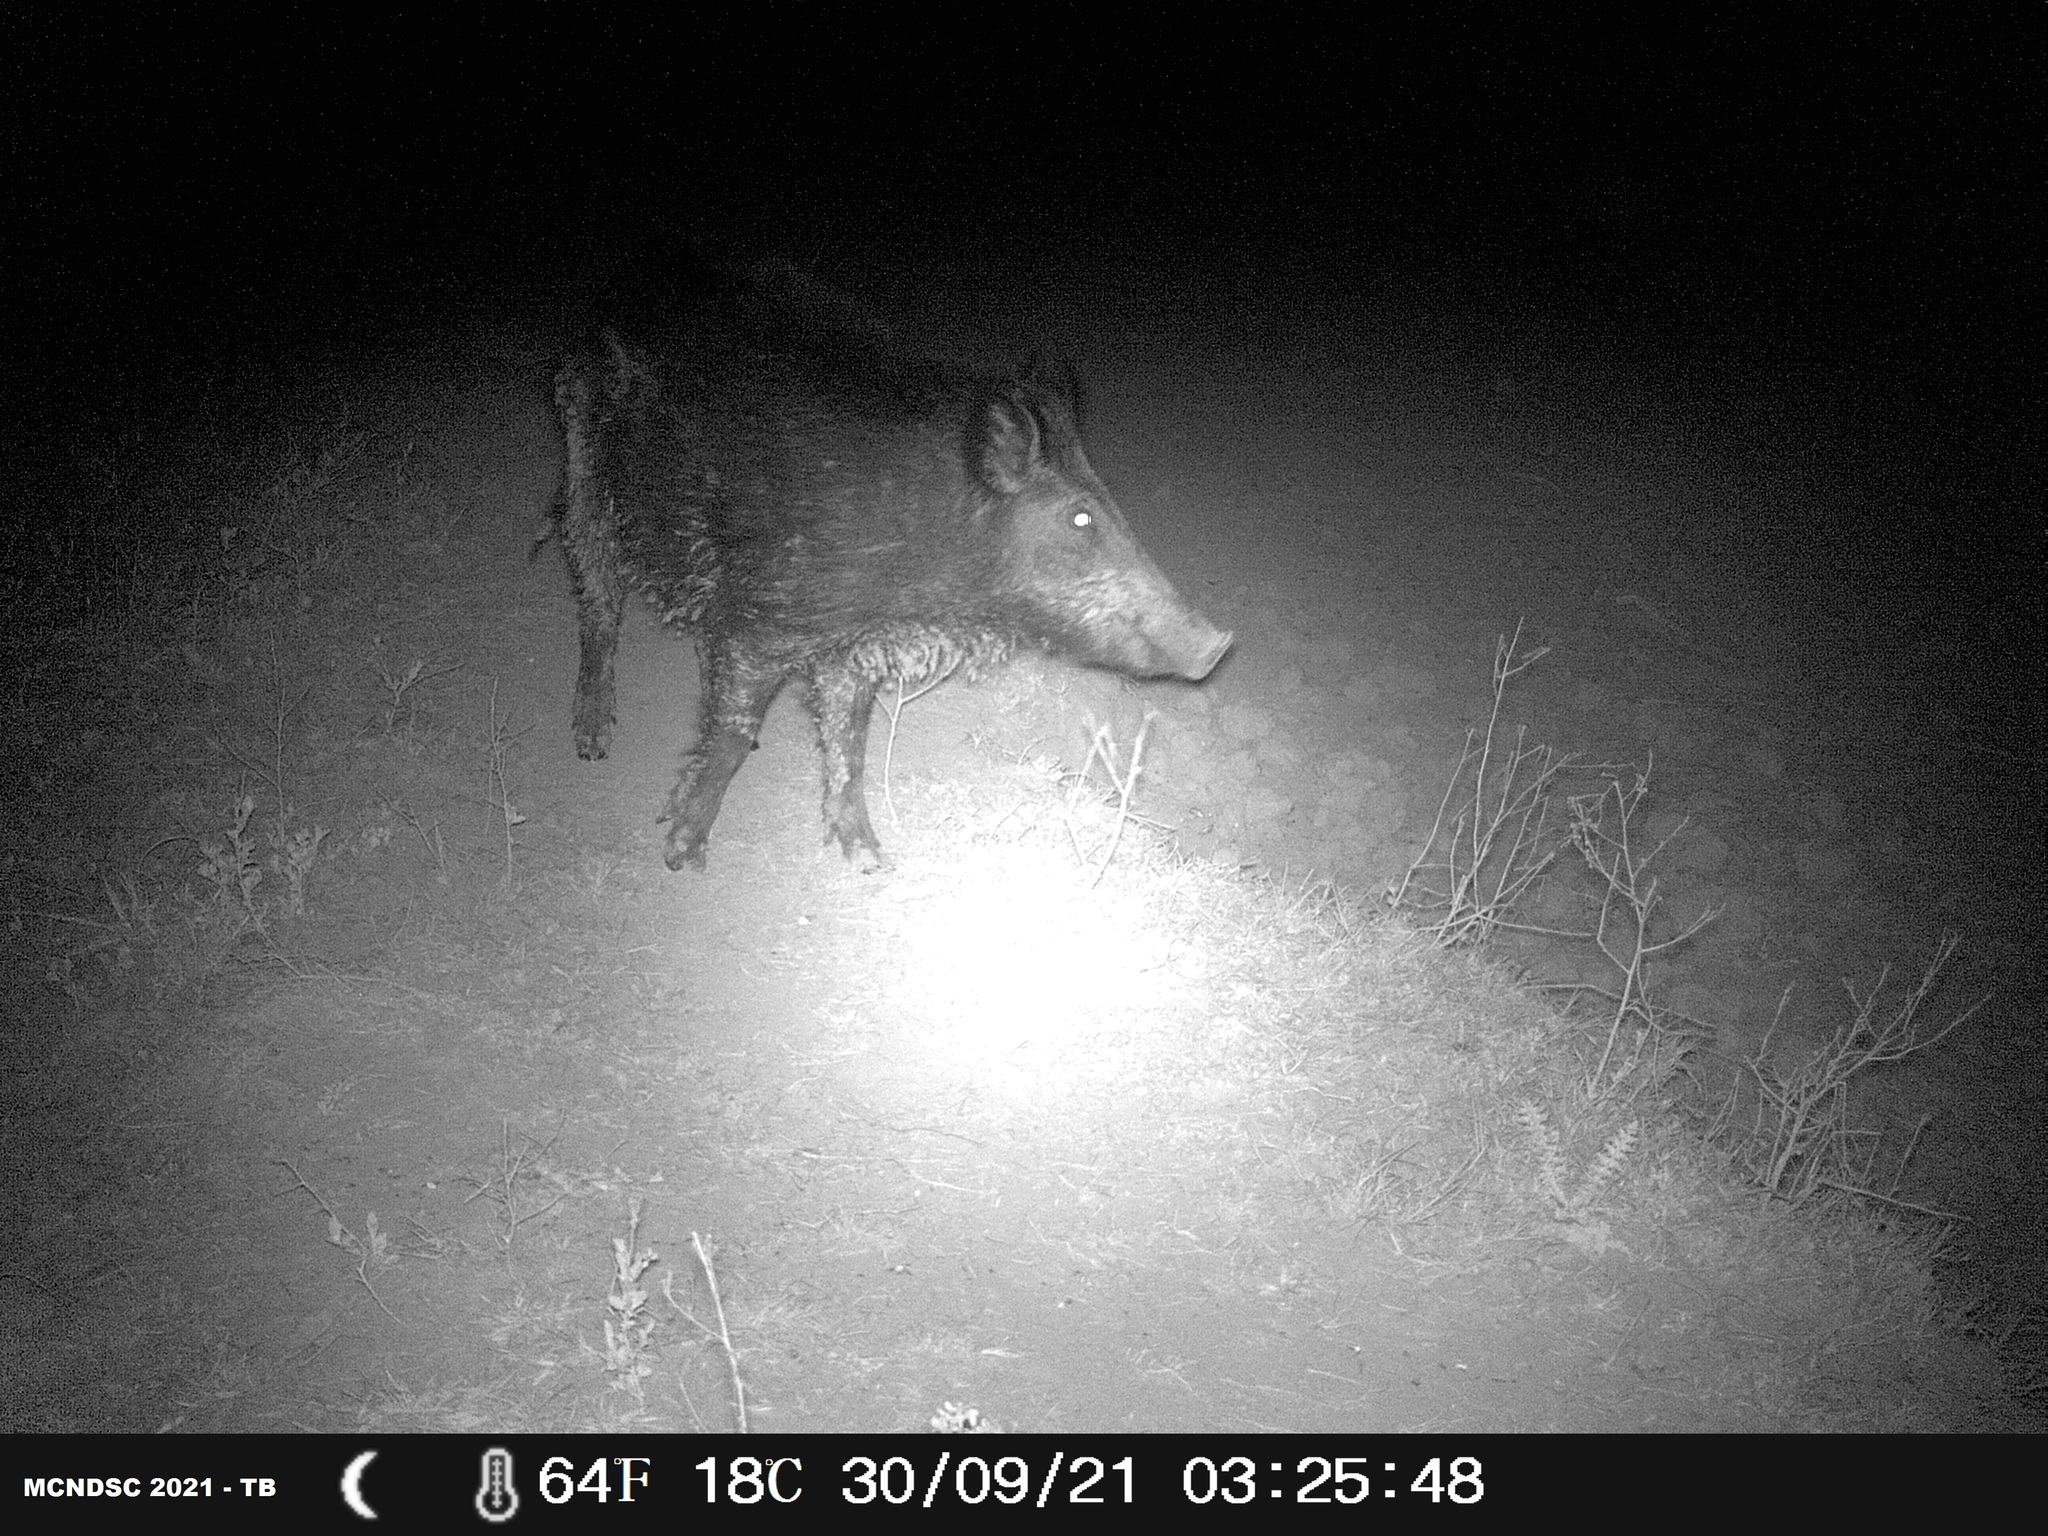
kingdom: Animalia
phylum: Chordata
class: Mammalia
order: Artiodactyla
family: Suidae
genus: Sus
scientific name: Sus scrofa
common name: Wild boar
